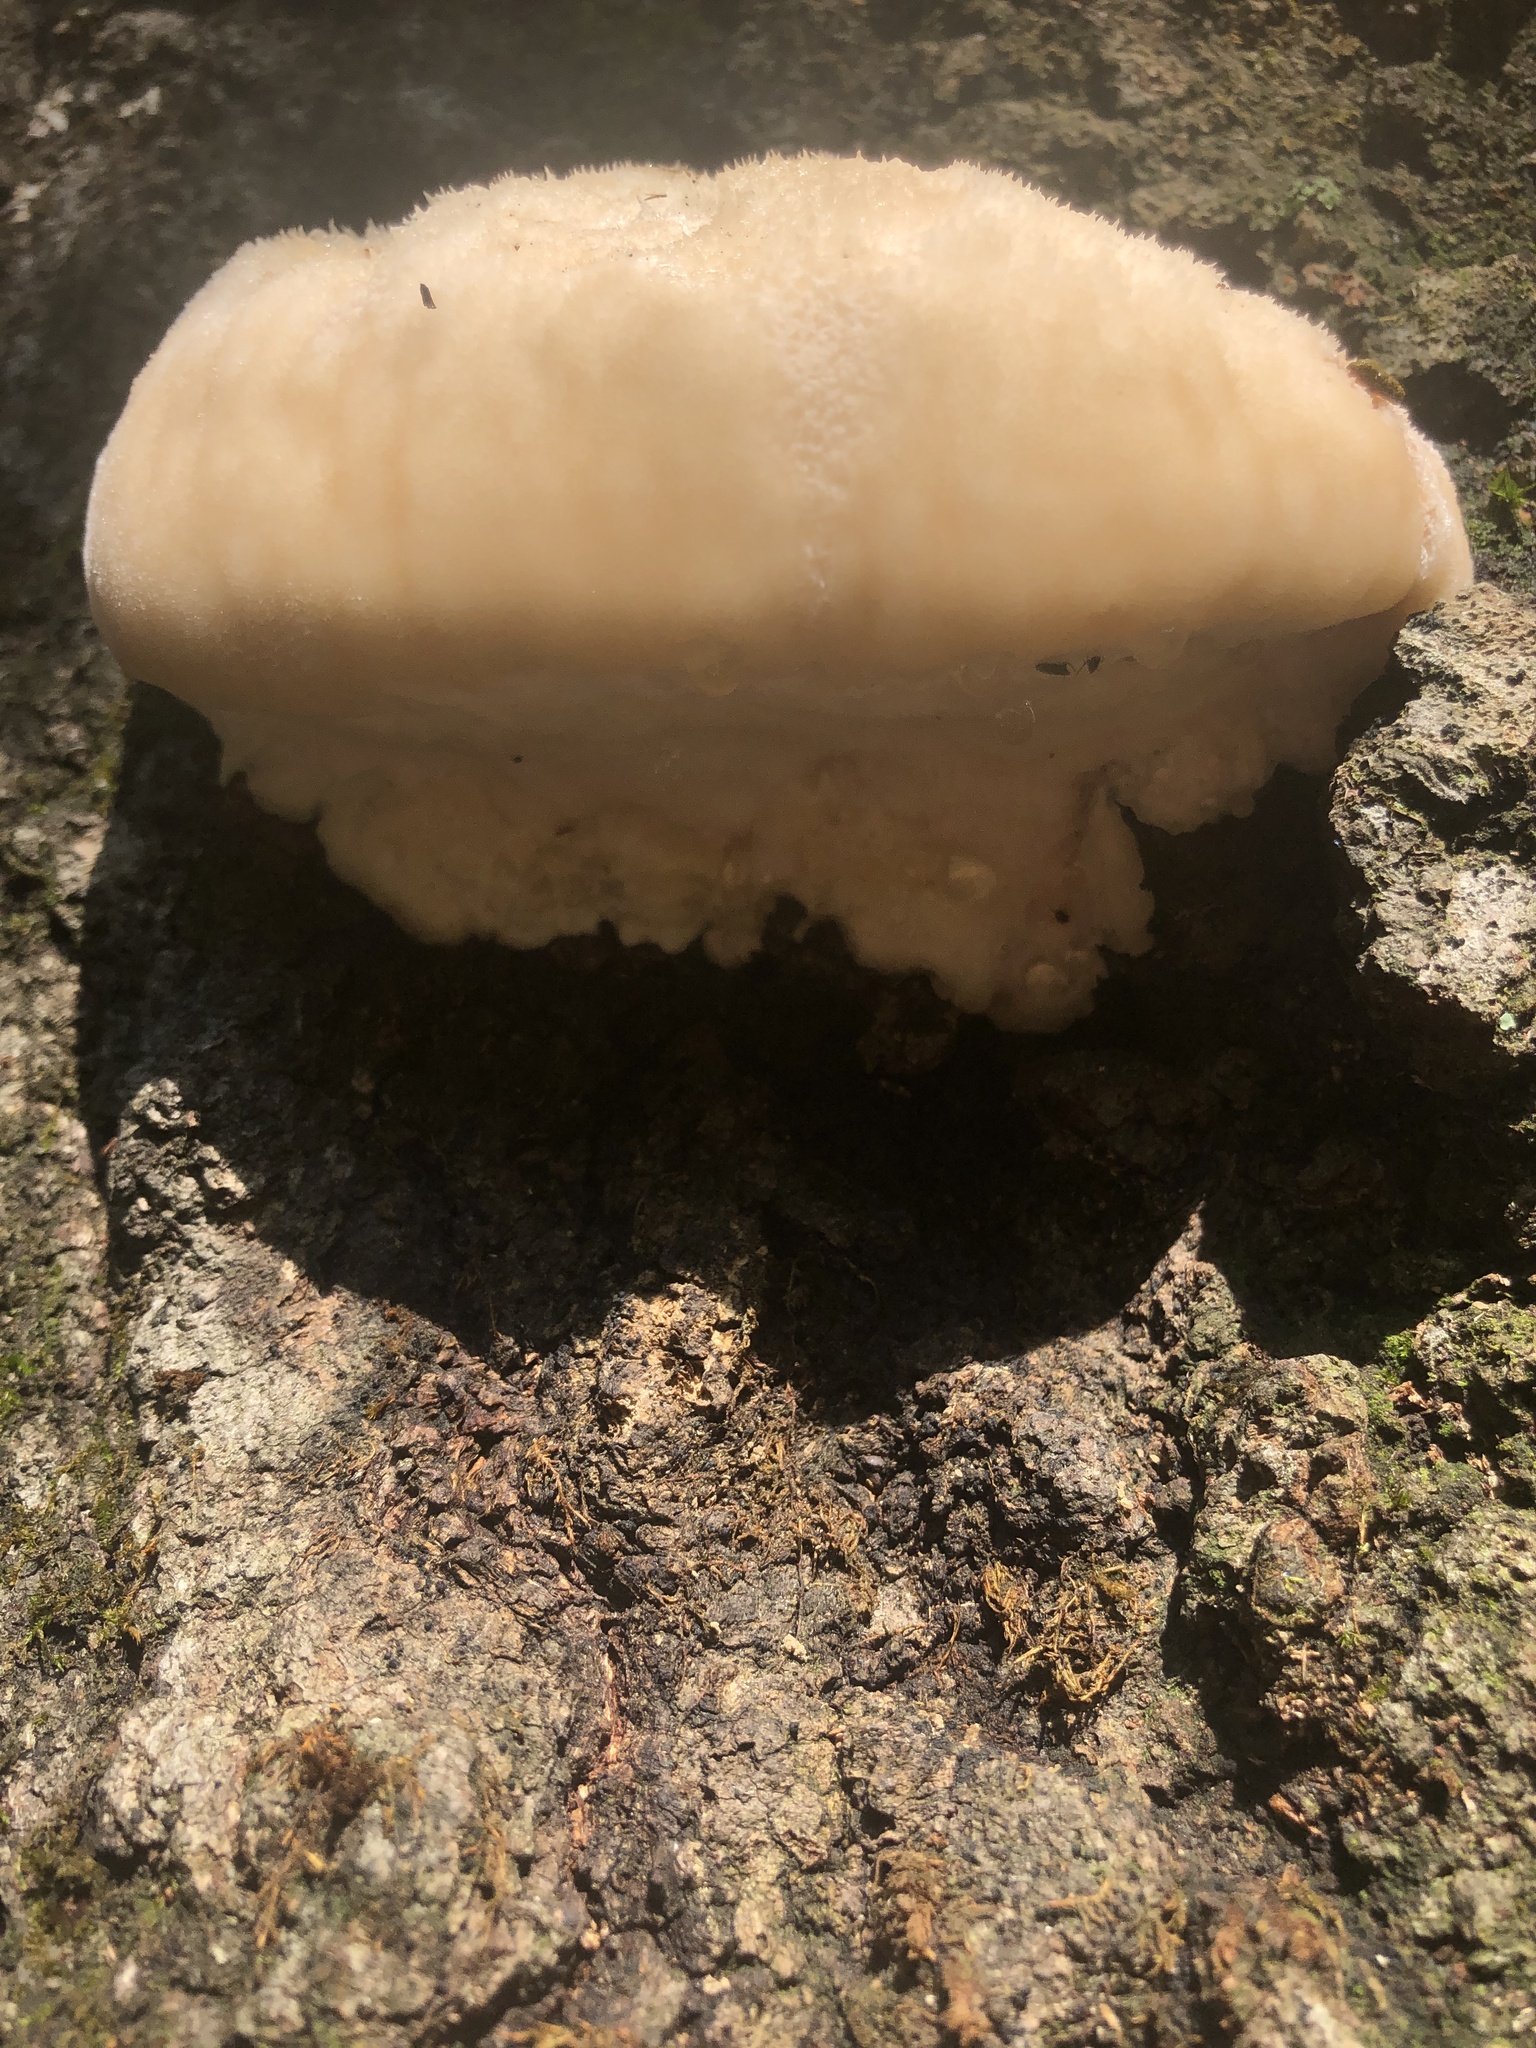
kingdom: Fungi
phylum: Basidiomycota
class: Agaricomycetes
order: Russulales
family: Hericiaceae
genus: Hericium
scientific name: Hericium erinaceus
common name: Bearded tooth
